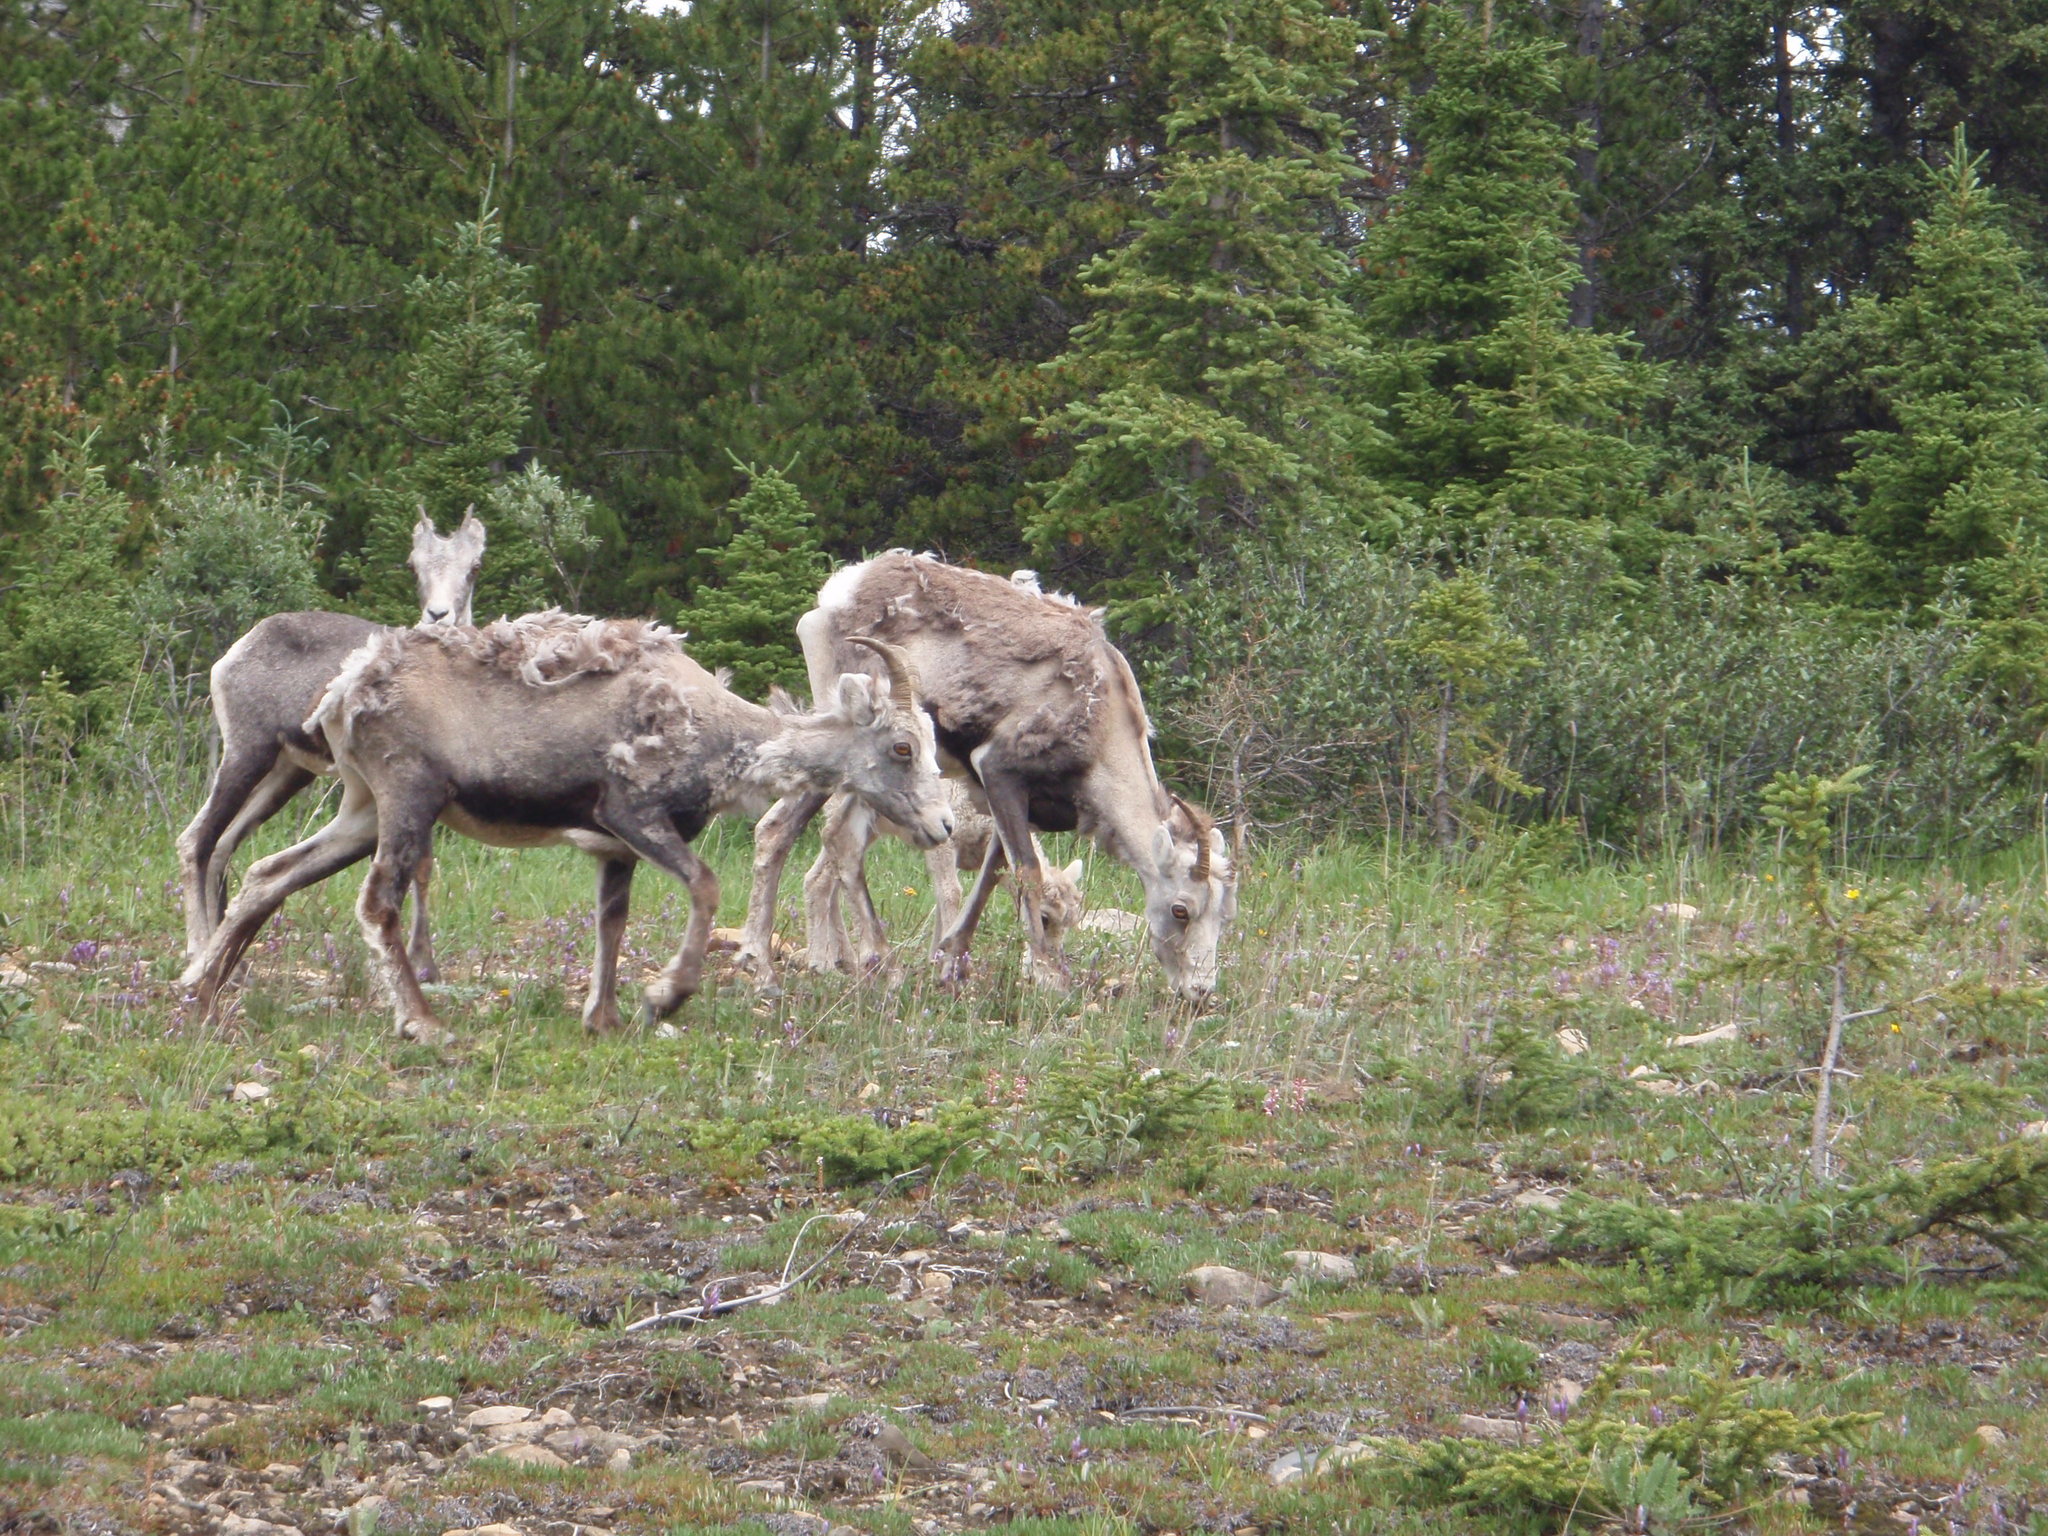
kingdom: Animalia
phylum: Chordata
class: Mammalia
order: Artiodactyla
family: Bovidae
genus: Ovis
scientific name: Ovis dalli
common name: Dall's sheep
